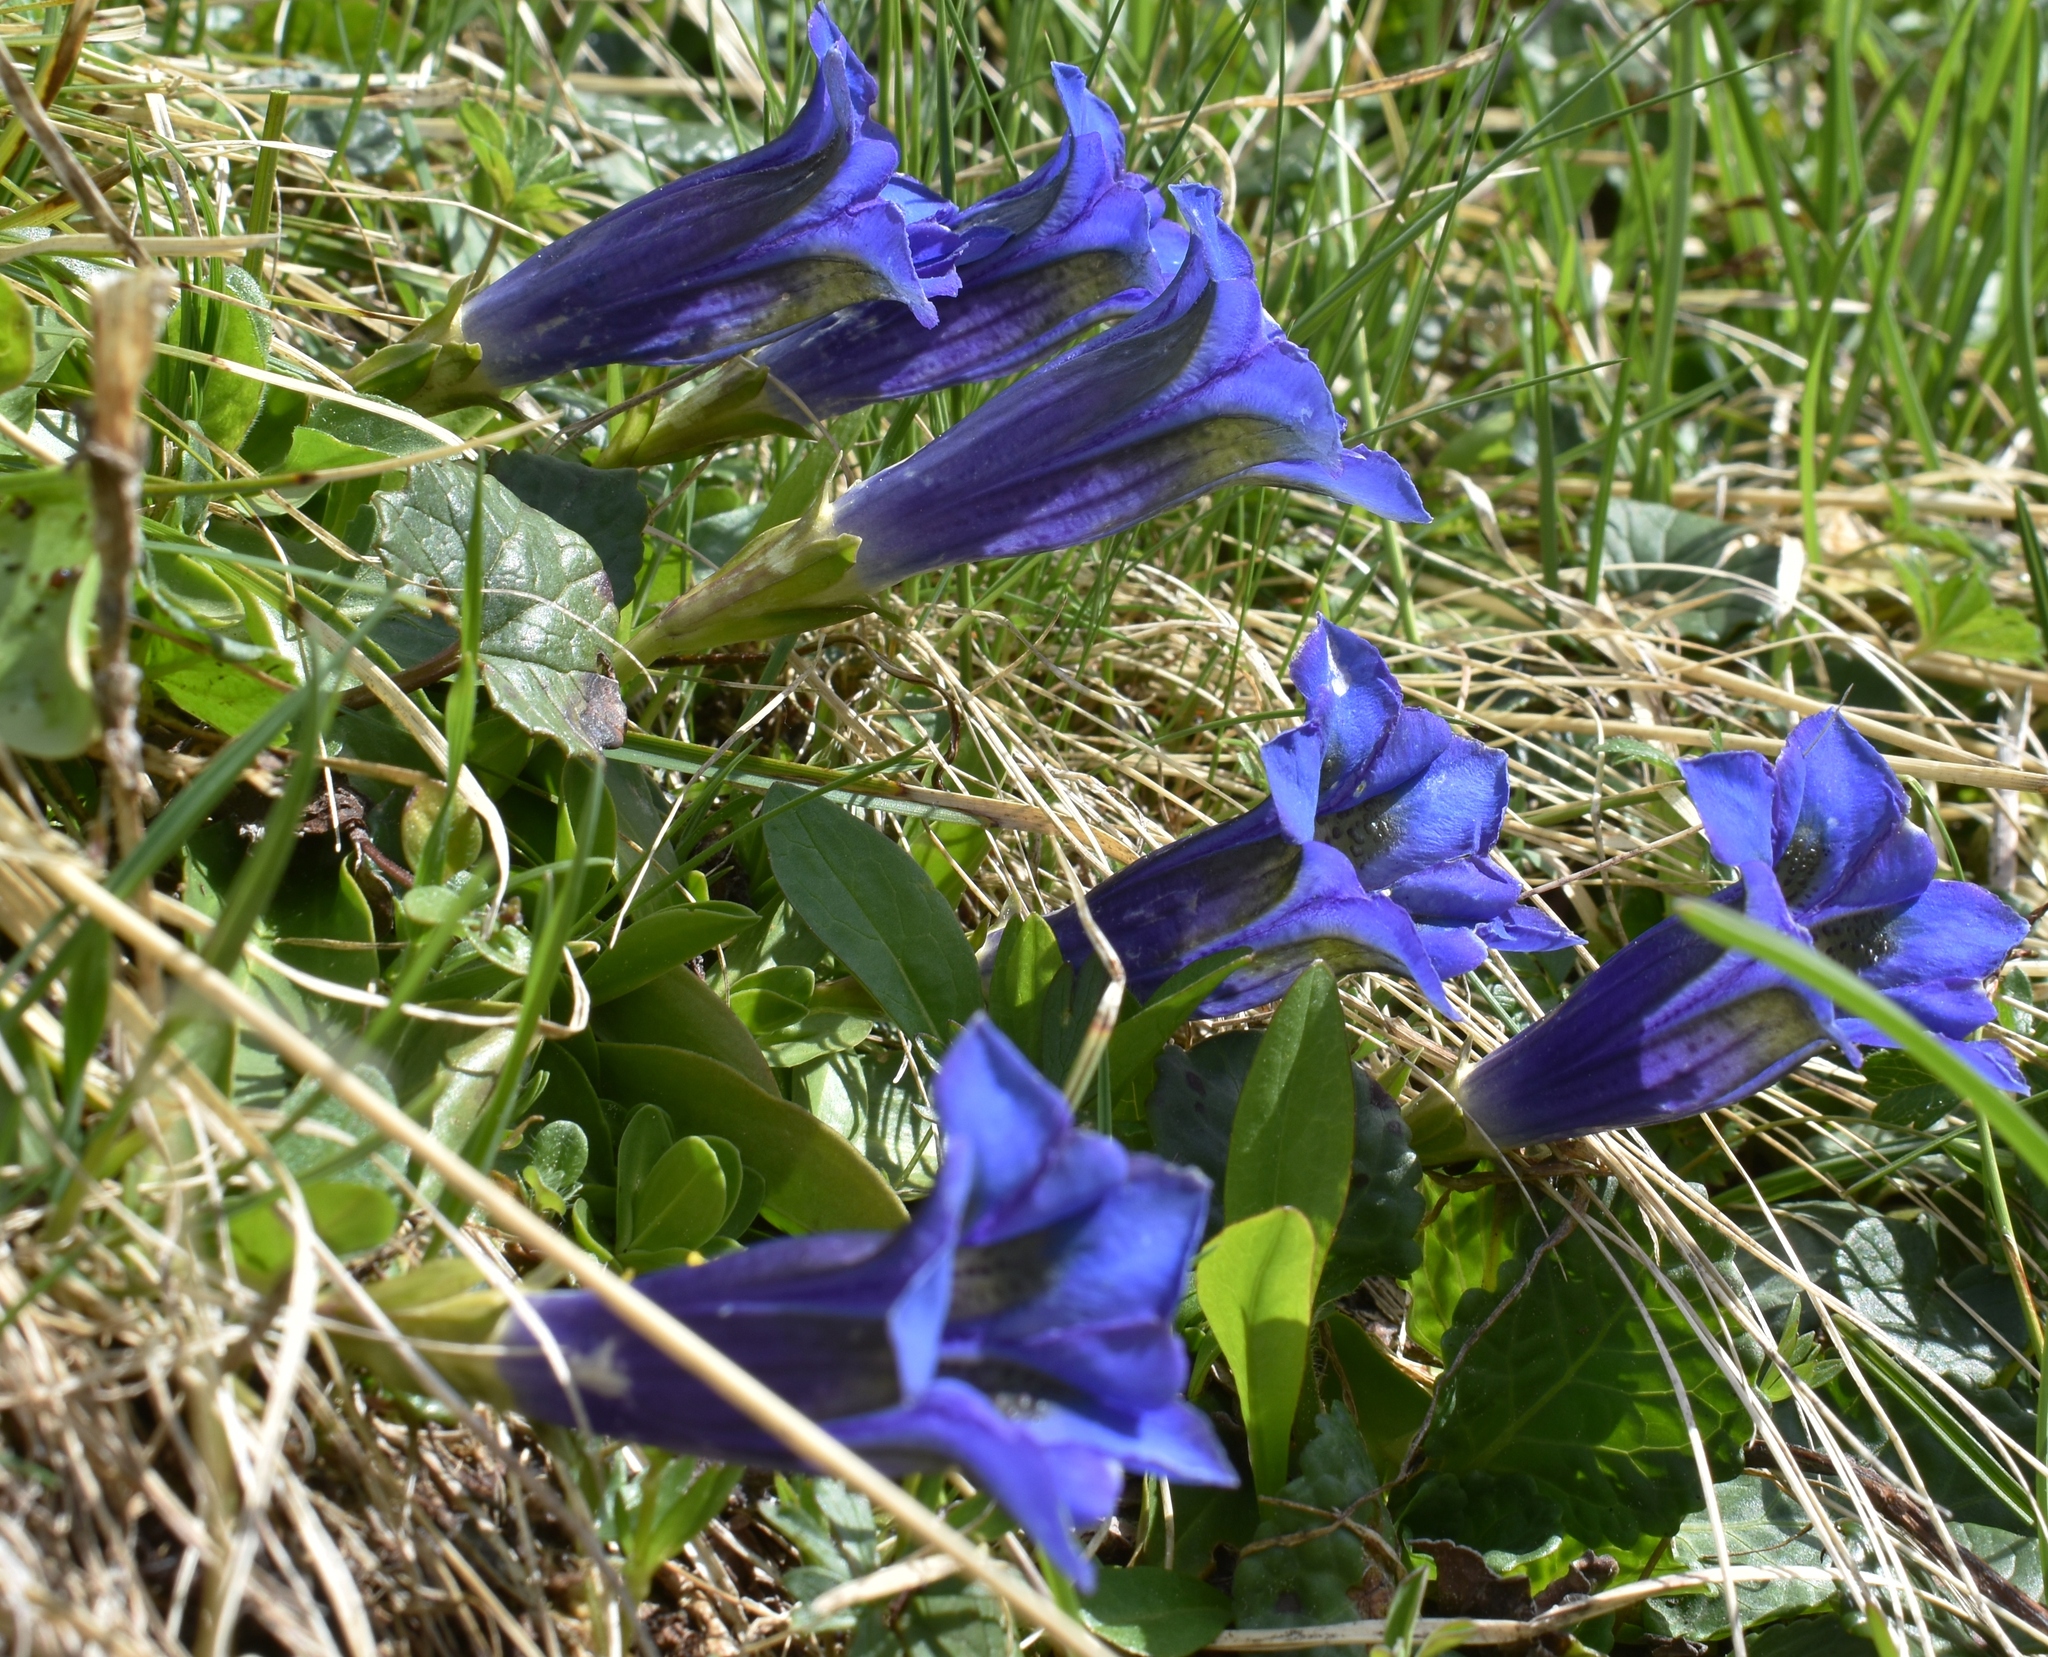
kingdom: Plantae
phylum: Tracheophyta
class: Magnoliopsida
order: Gentianales
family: Gentianaceae
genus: Gentiana
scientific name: Gentiana acaulis
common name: Trumpet gentian
